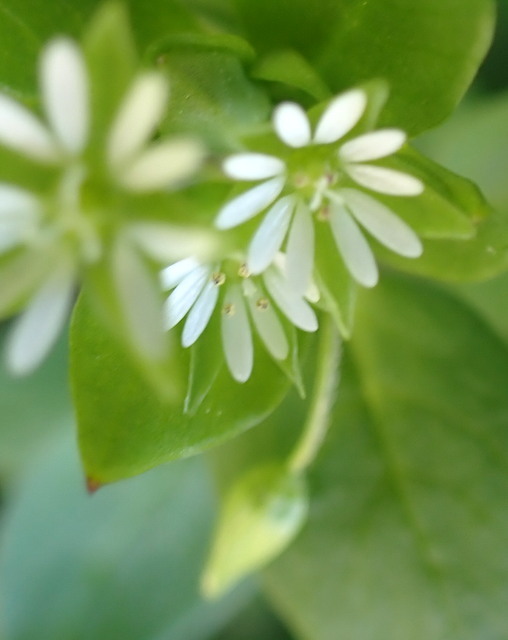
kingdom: Plantae
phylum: Tracheophyta
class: Magnoliopsida
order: Caryophyllales
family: Caryophyllaceae
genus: Stellaria
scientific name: Stellaria media
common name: Common chickweed
